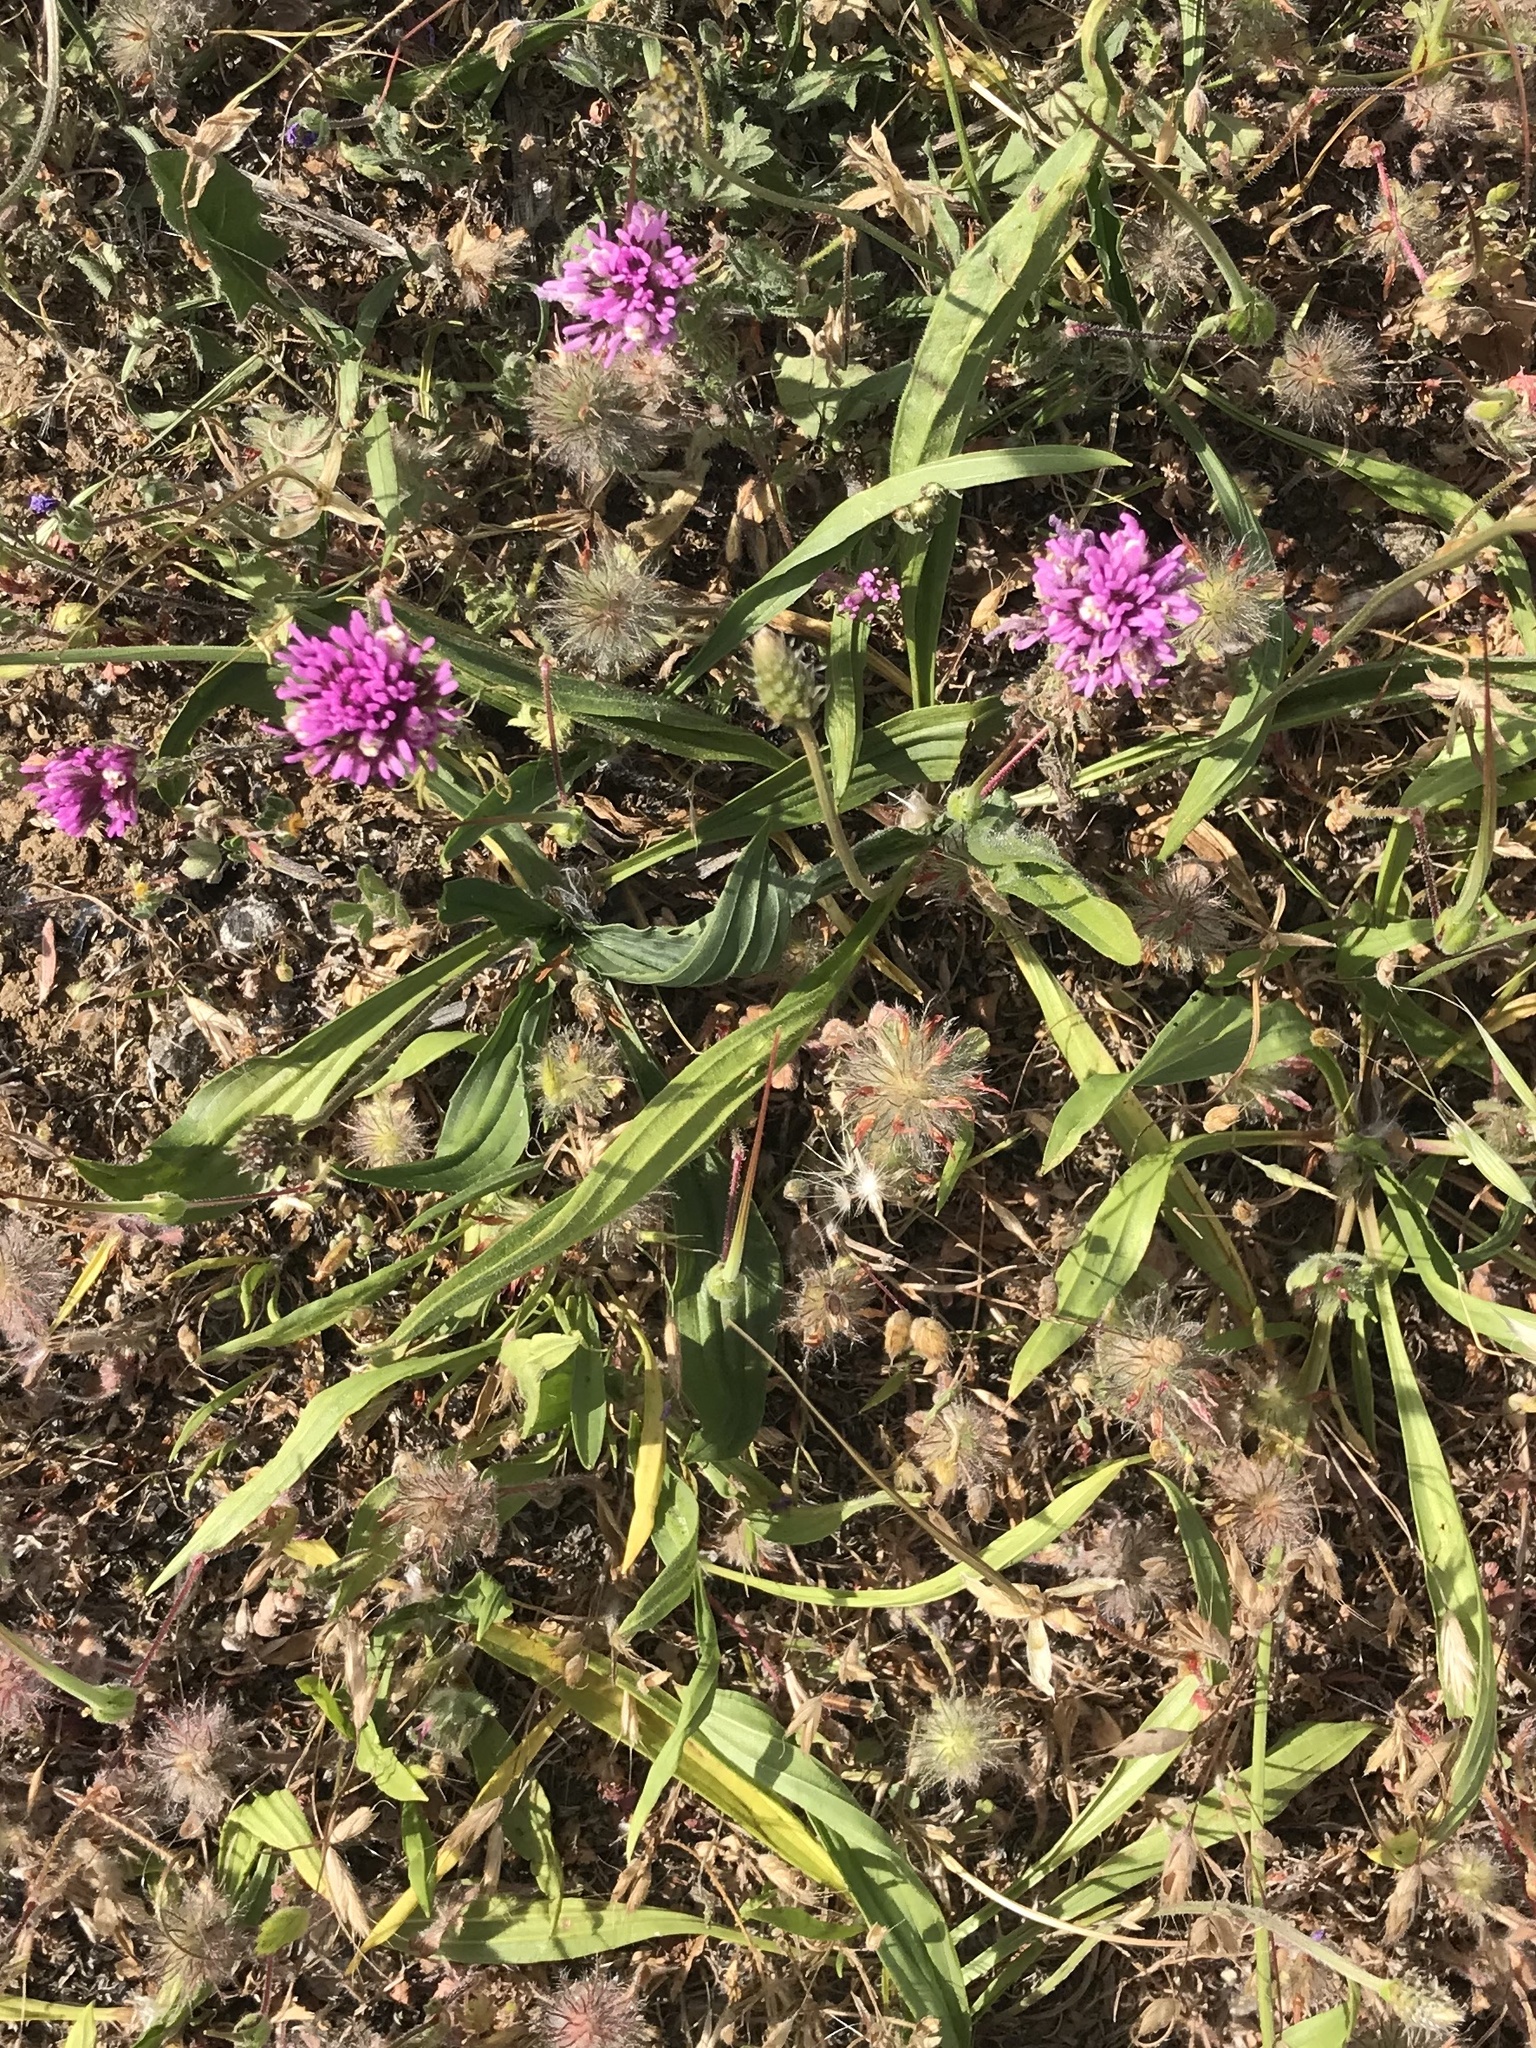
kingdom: Plantae
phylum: Tracheophyta
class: Magnoliopsida
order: Lamiales
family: Orobanchaceae
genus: Castilleja
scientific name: Castilleja exserta
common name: Purple owl-clover
